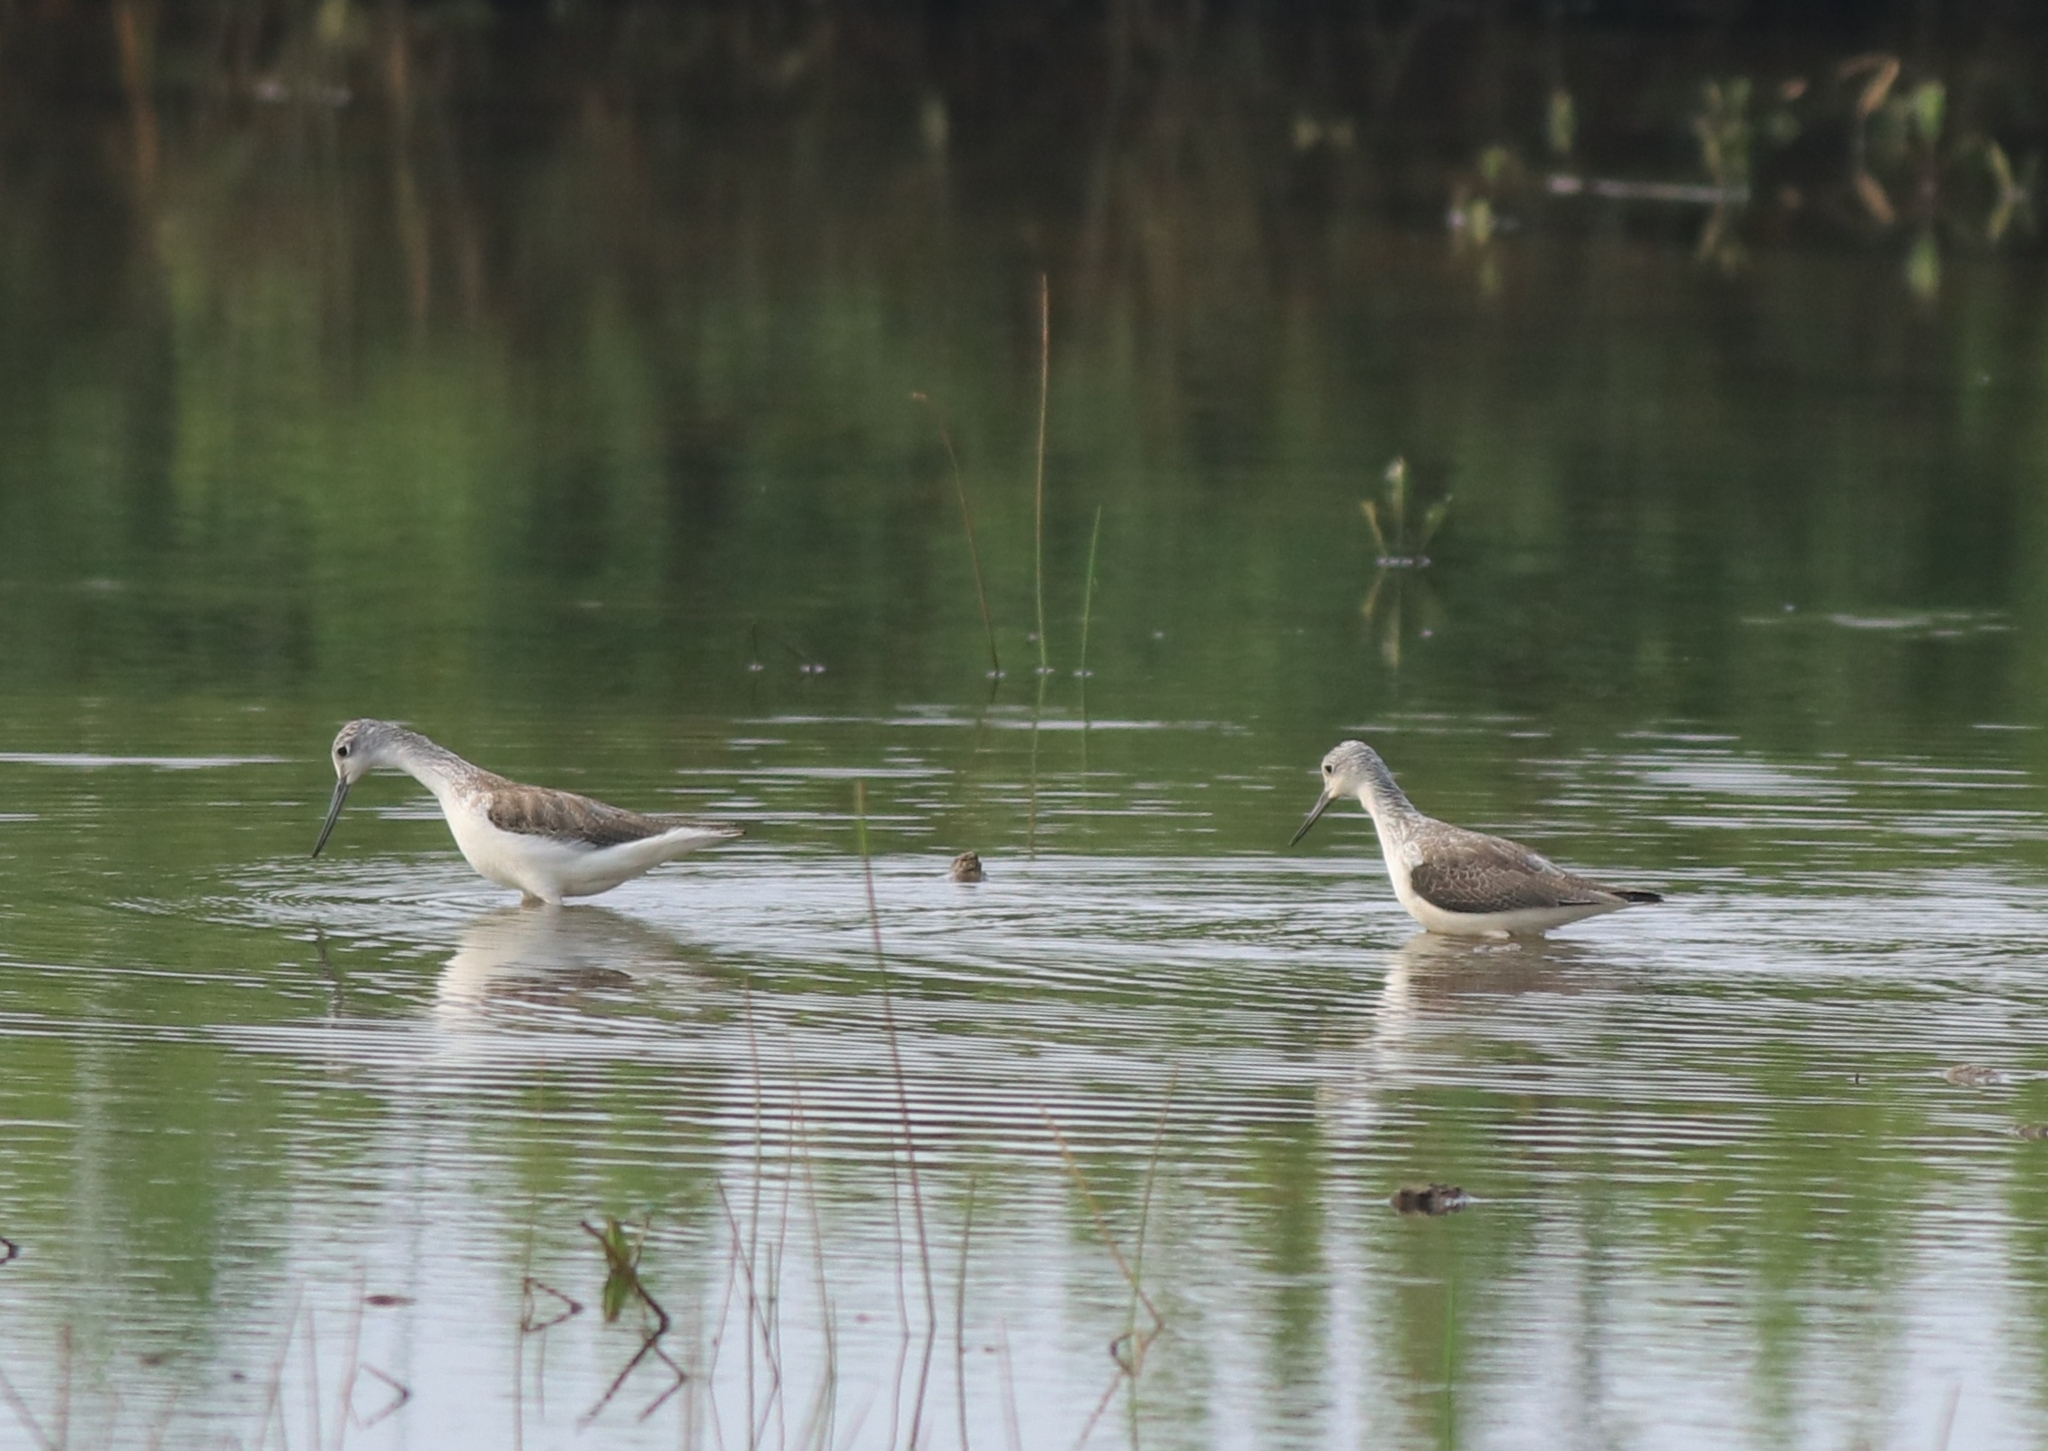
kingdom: Animalia
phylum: Chordata
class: Aves
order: Charadriiformes
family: Scolopacidae
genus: Tringa
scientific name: Tringa nebularia
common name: Common greenshank
